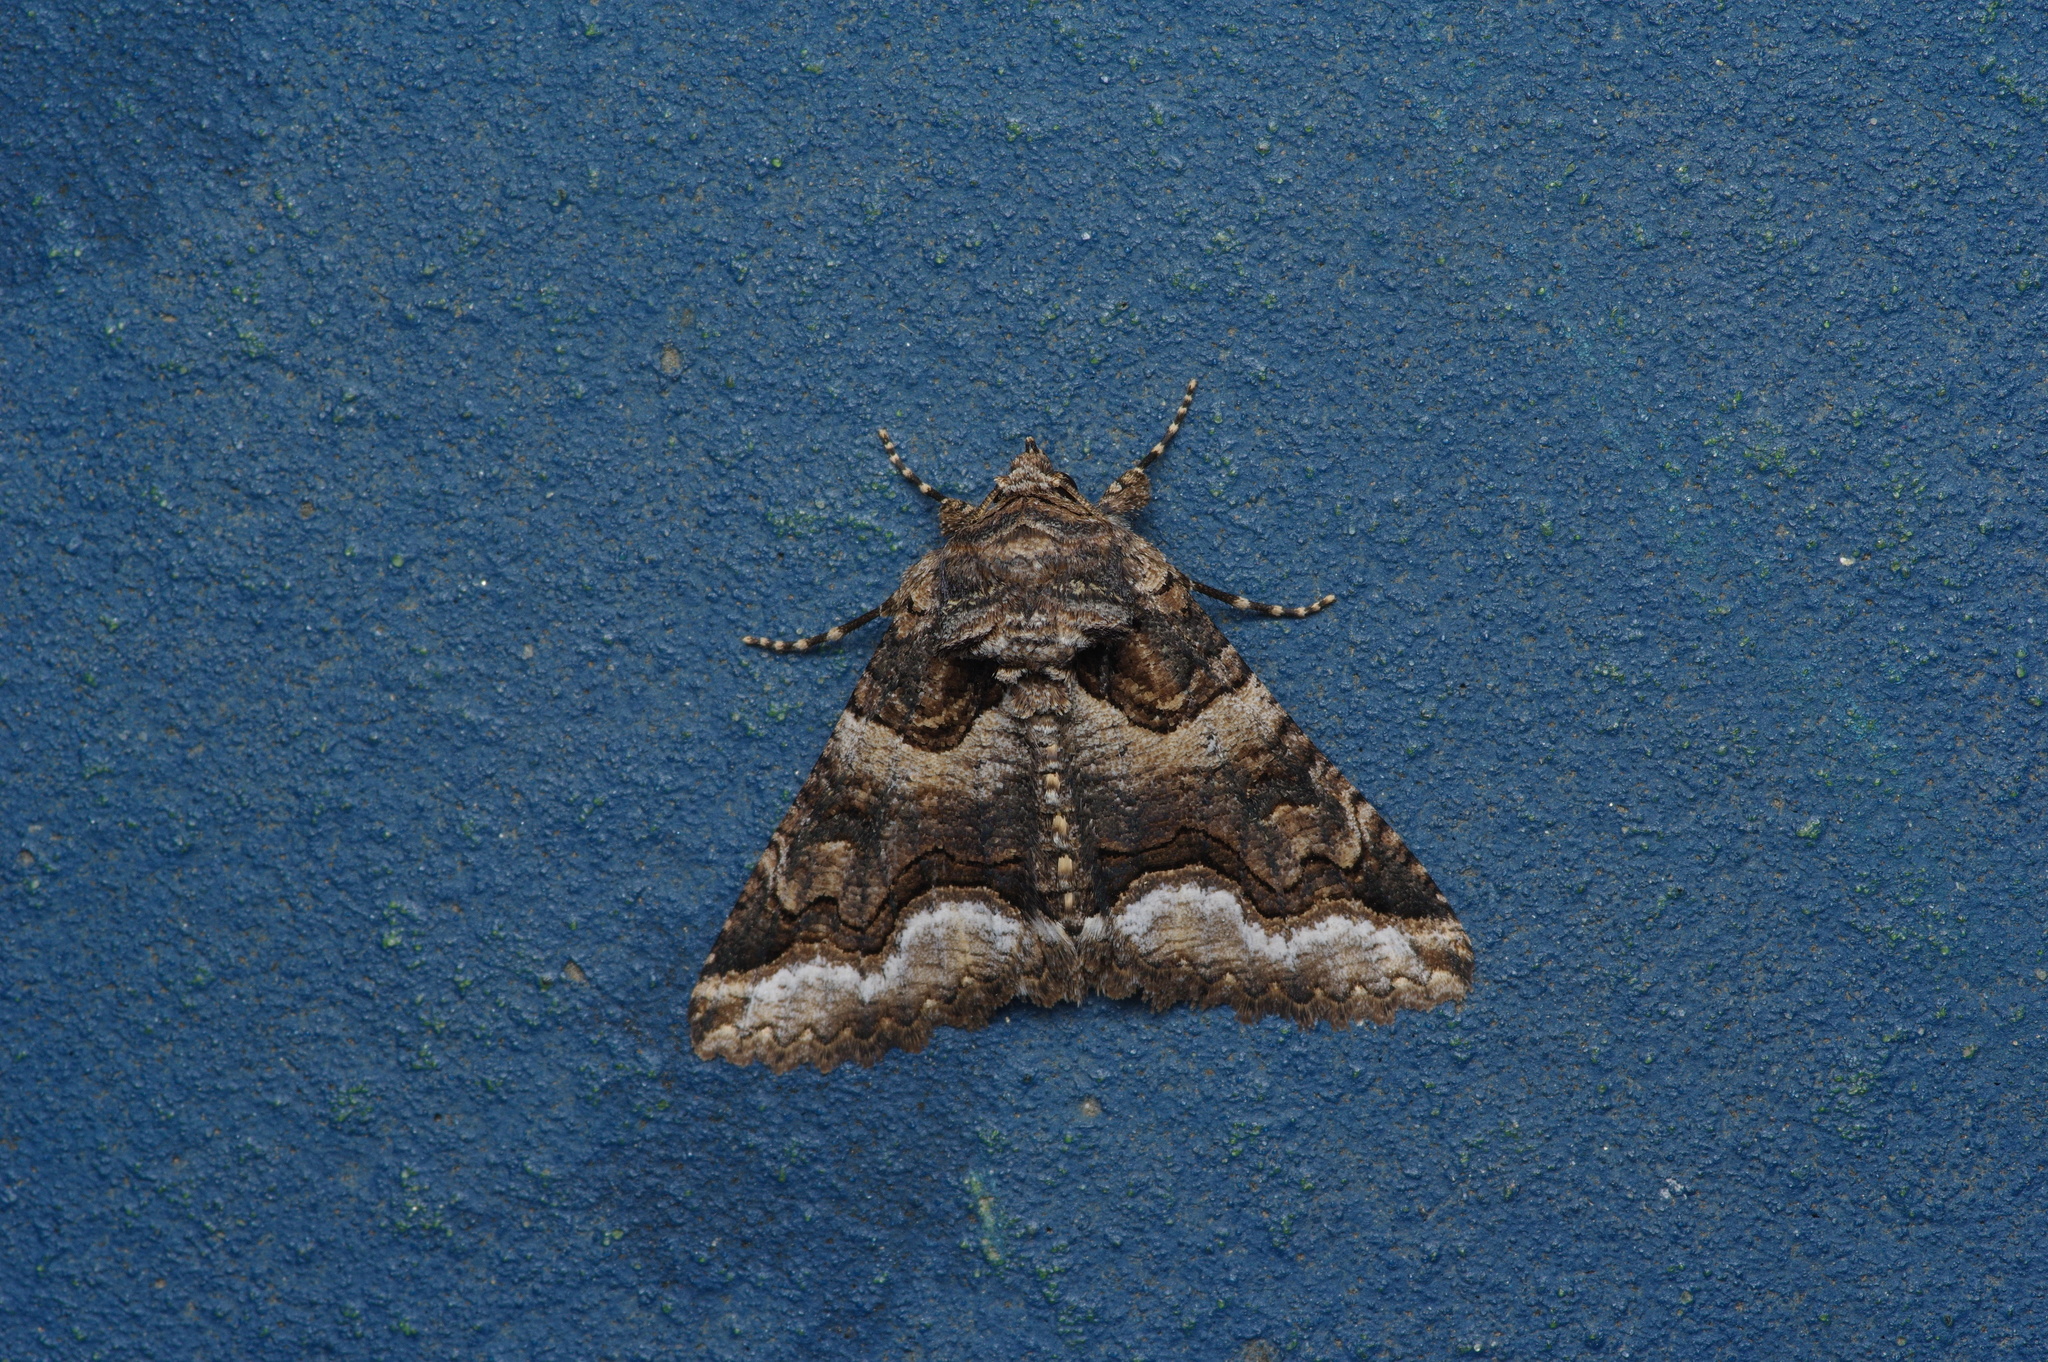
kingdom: Animalia
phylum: Arthropoda
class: Insecta
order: Lepidoptera
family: Erebidae
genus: Zale
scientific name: Zale calycanthata
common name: Double-banded zale
